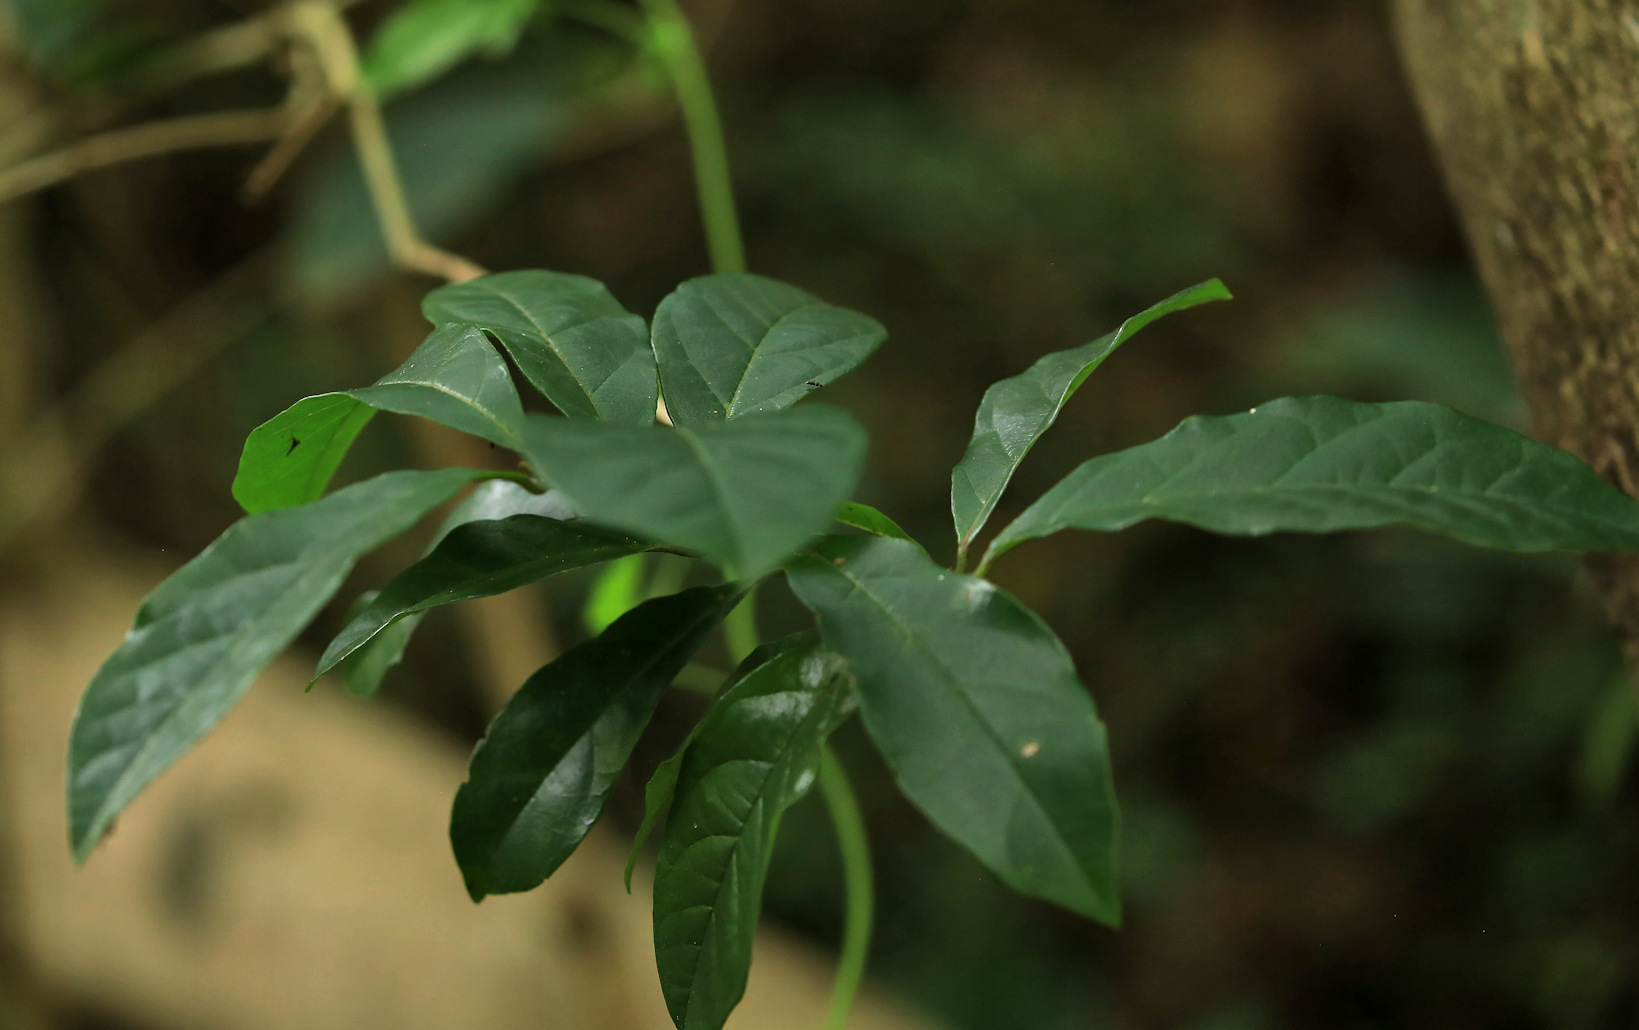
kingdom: Plantae
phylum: Tracheophyta
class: Magnoliopsida
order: Myrtales
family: Combretaceae
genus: Combretum
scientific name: Combretum kraussii
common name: Forest bushwillow
